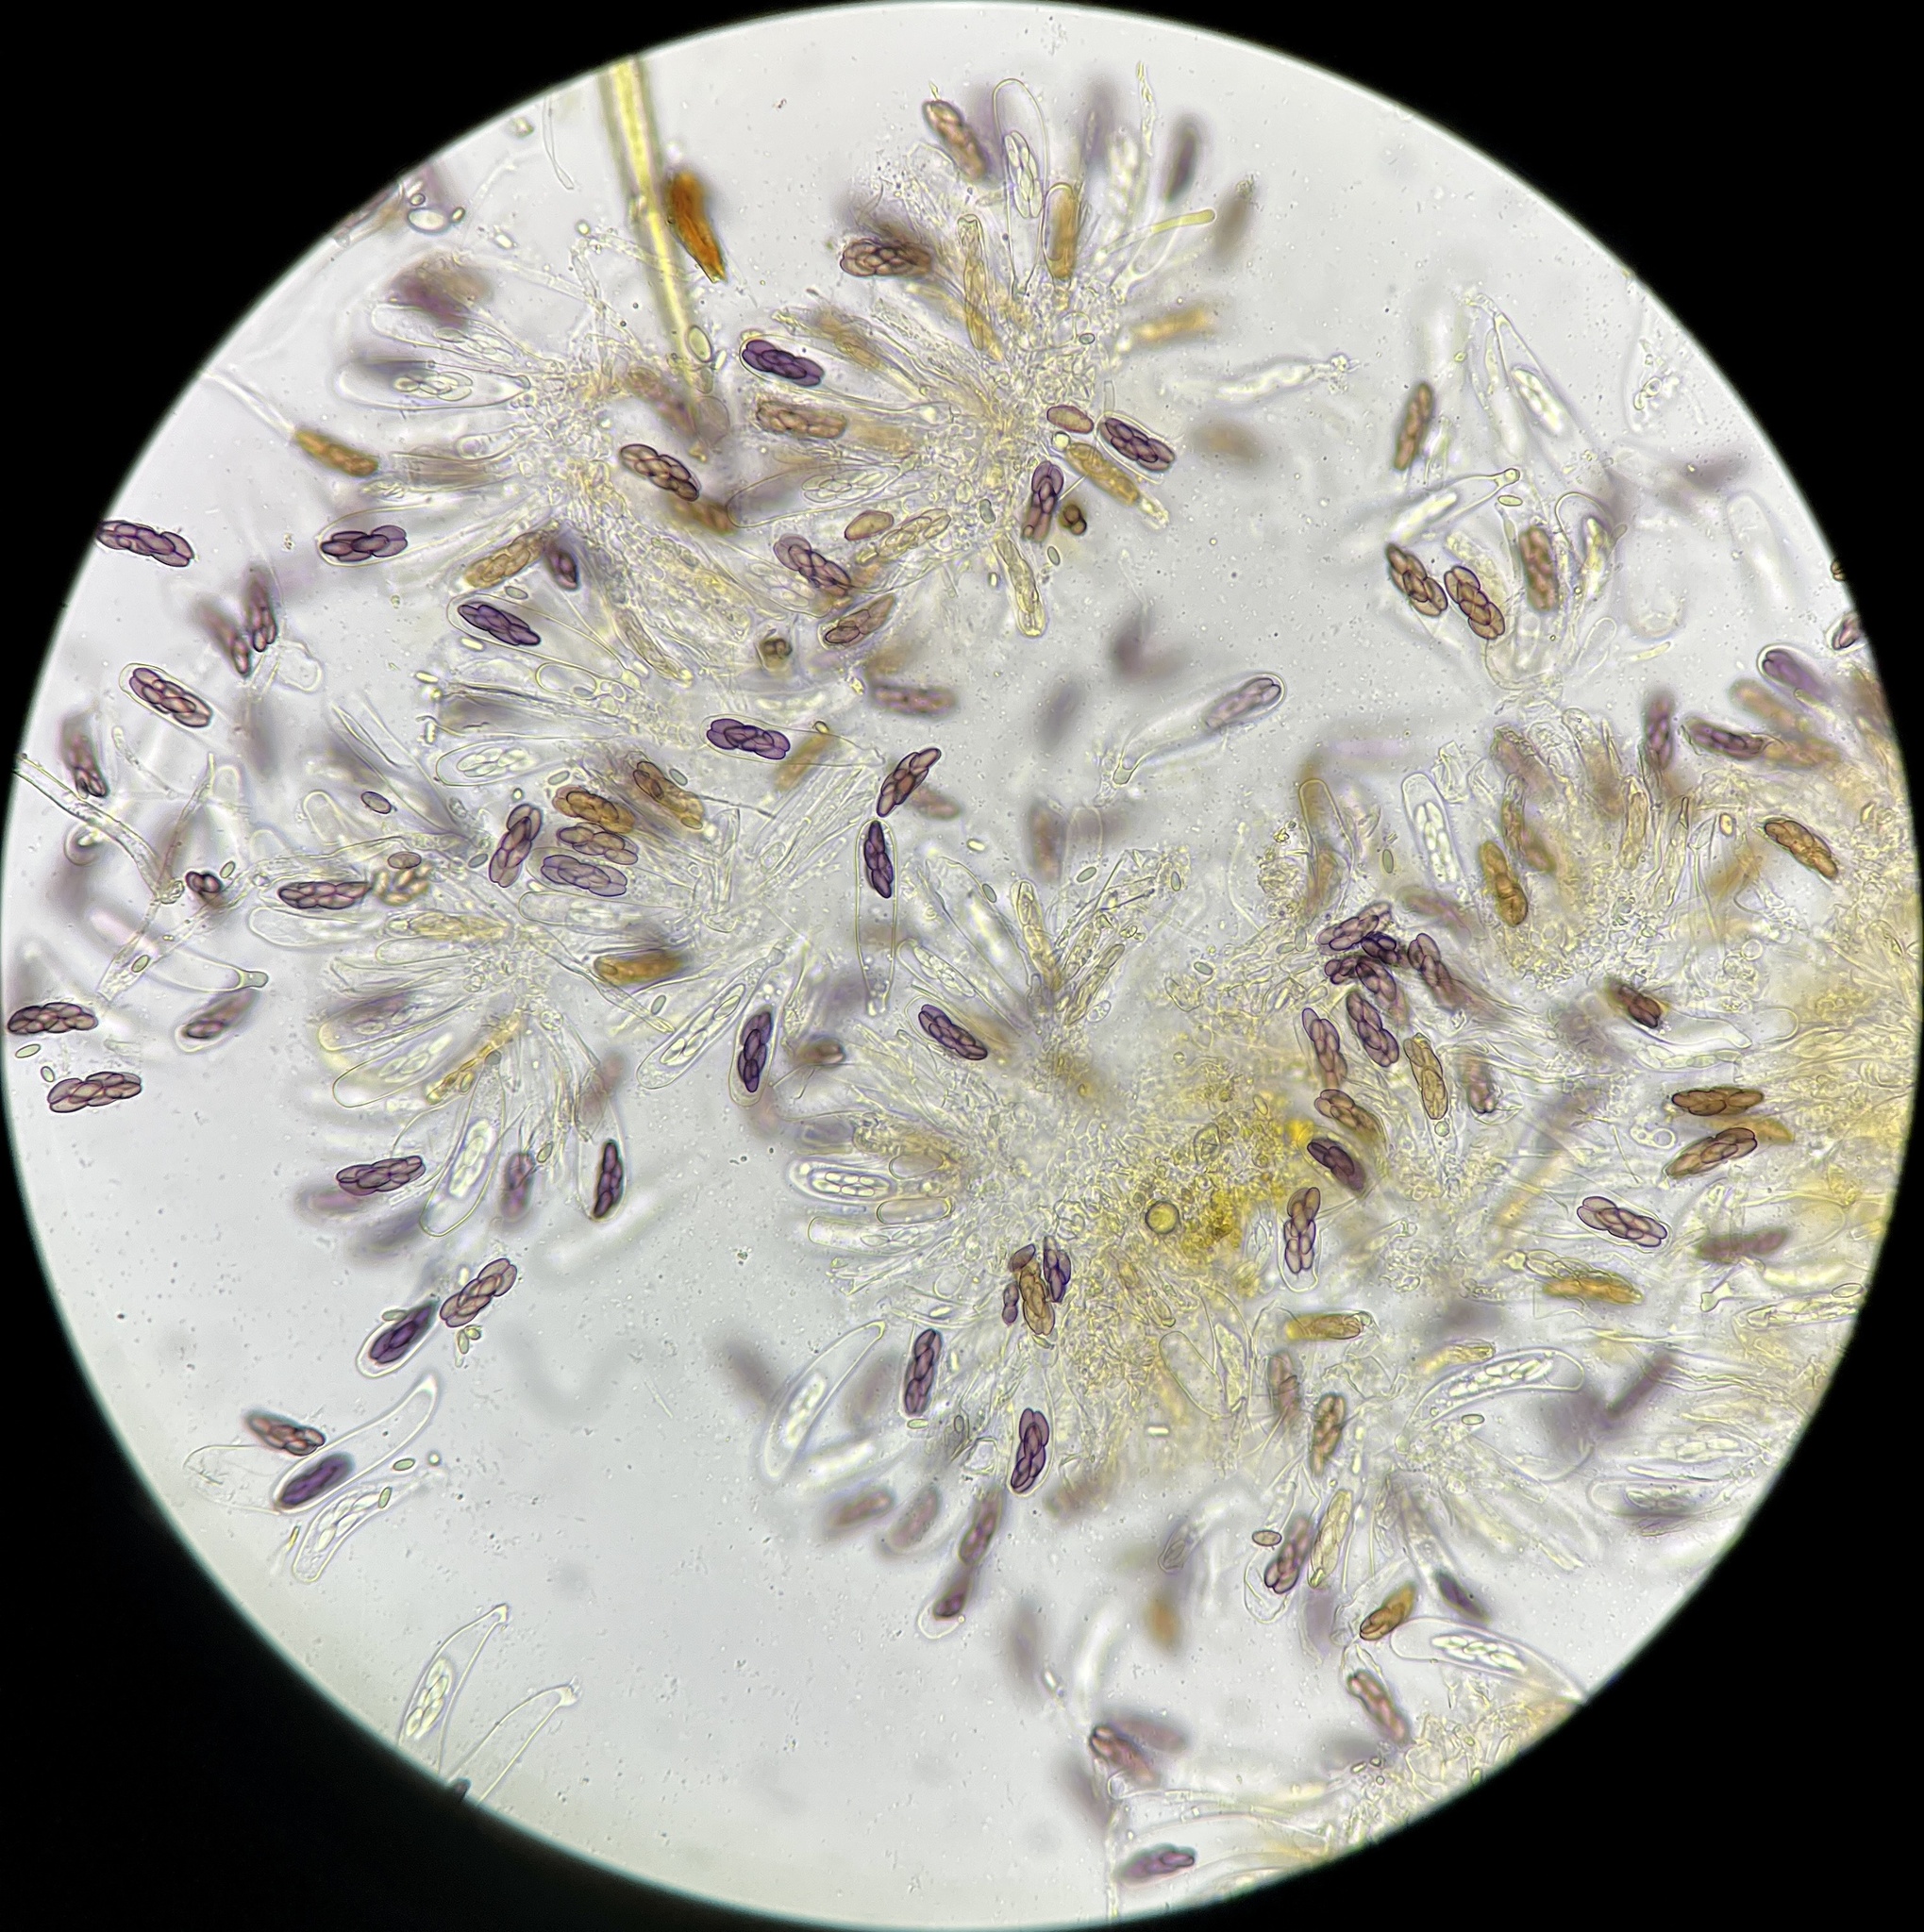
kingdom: Fungi
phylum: Ascomycota
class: Pezizomycetes
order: Pezizales
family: Ascobolaceae
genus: Saccobolus
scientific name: Saccobolus citrinus
